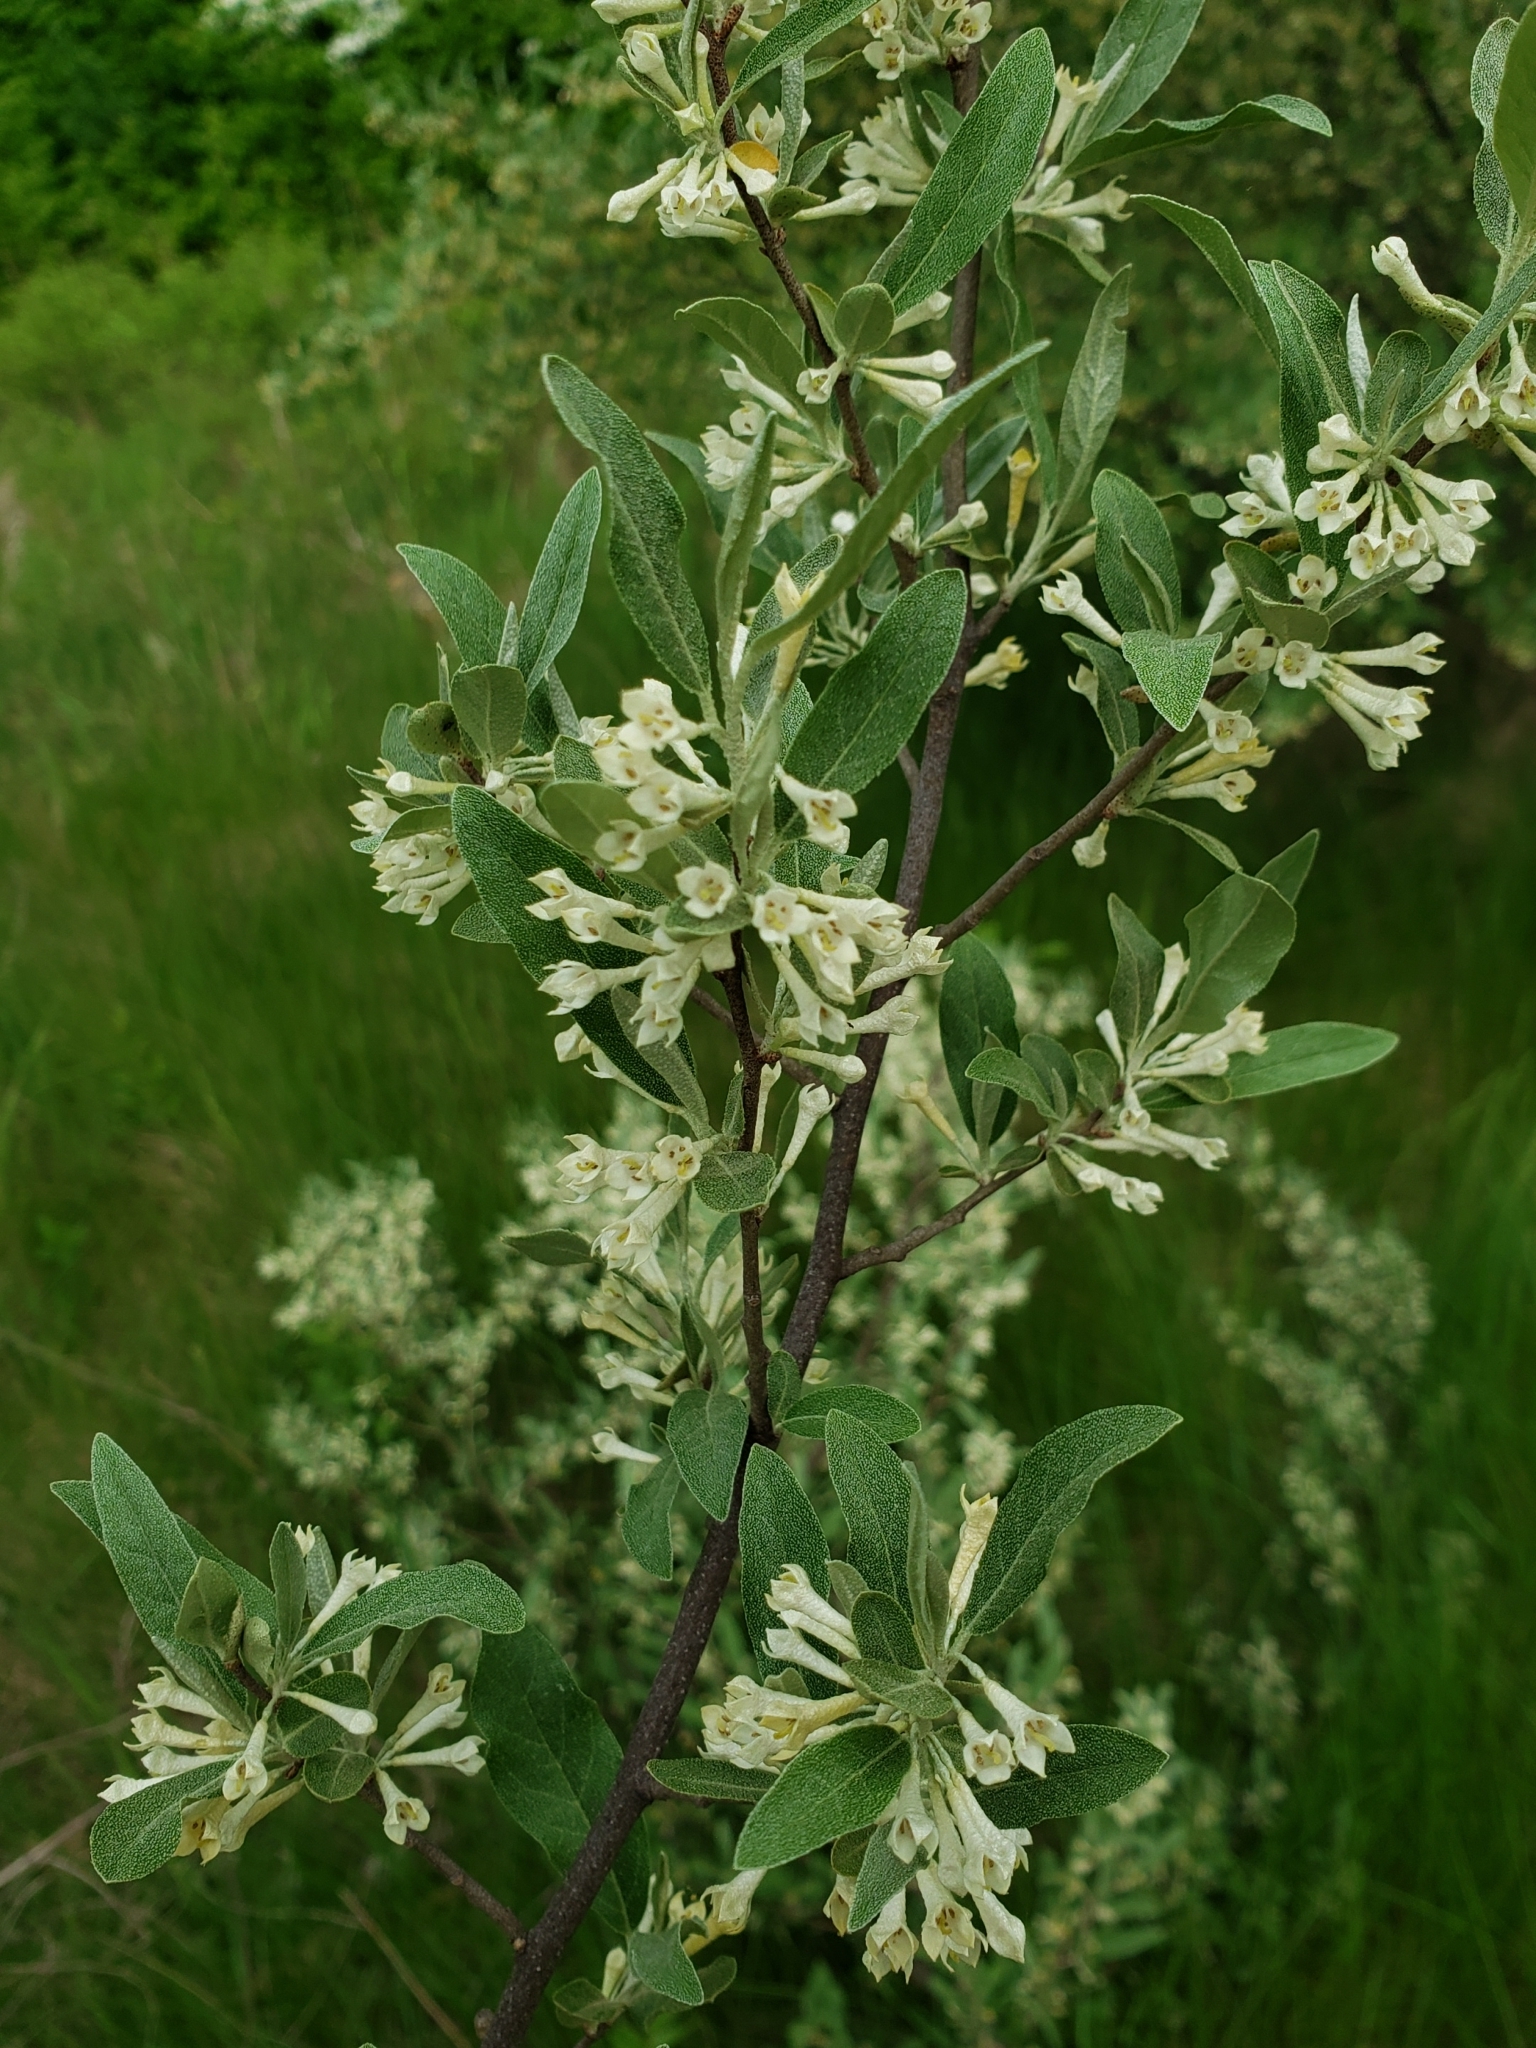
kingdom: Plantae
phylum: Tracheophyta
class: Magnoliopsida
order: Rosales
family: Elaeagnaceae
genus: Elaeagnus
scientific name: Elaeagnus umbellata
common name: Autumn olive
